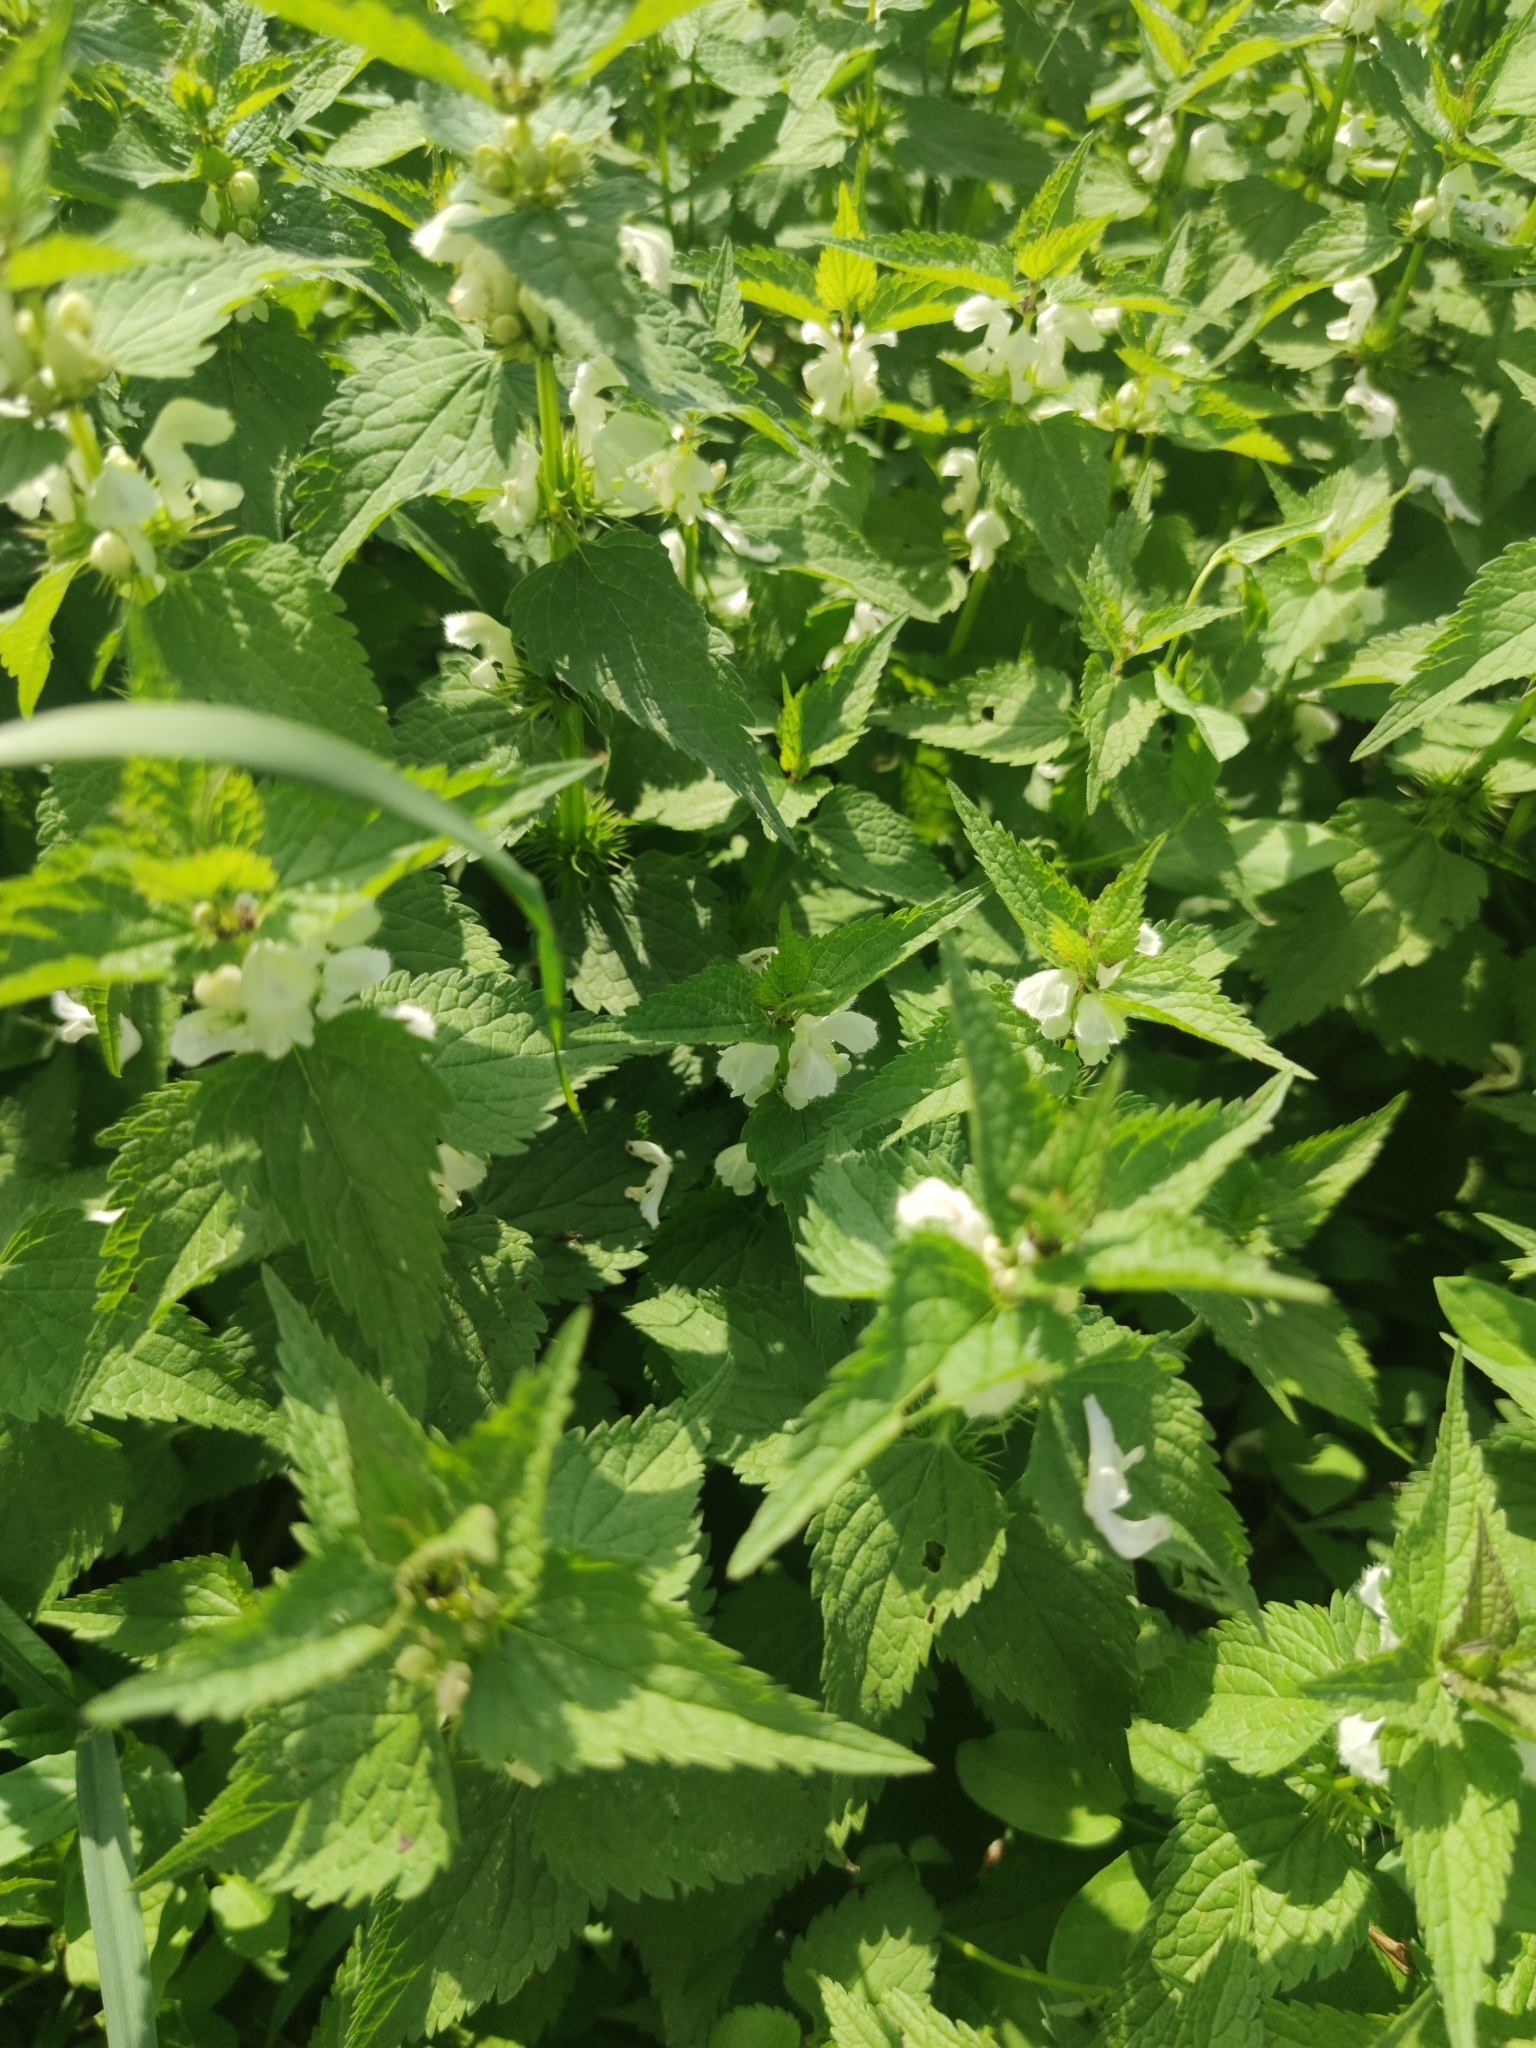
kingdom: Plantae
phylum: Tracheophyta
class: Magnoliopsida
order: Lamiales
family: Lamiaceae
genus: Lamium
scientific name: Lamium album
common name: White dead-nettle
